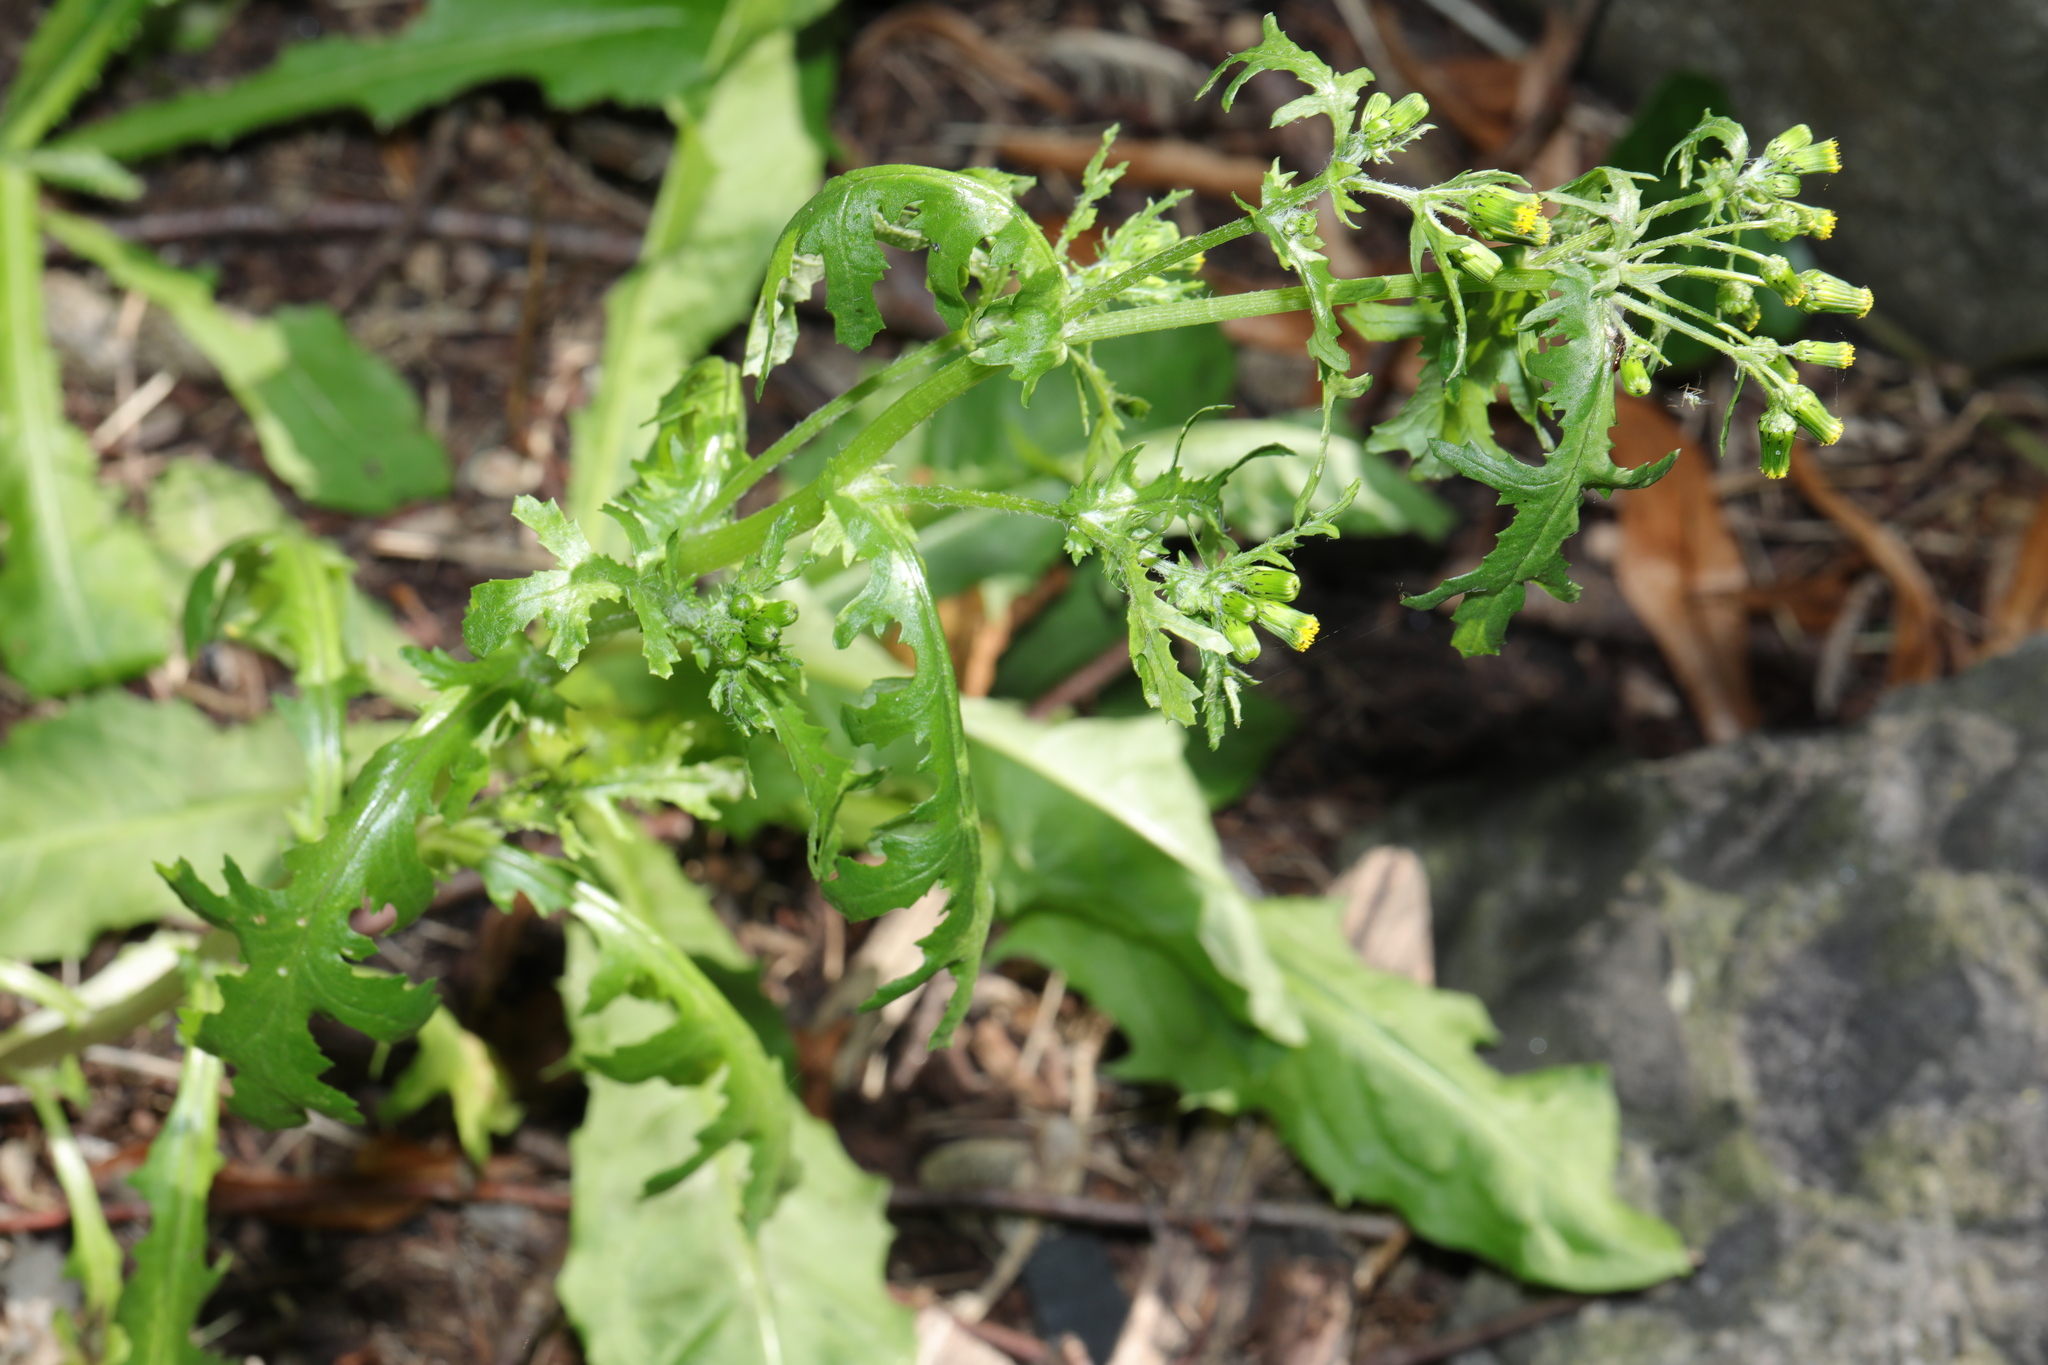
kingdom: Plantae
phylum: Tracheophyta
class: Magnoliopsida
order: Asterales
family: Asteraceae
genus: Senecio
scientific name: Senecio vulgaris
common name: Old-man-in-the-spring
